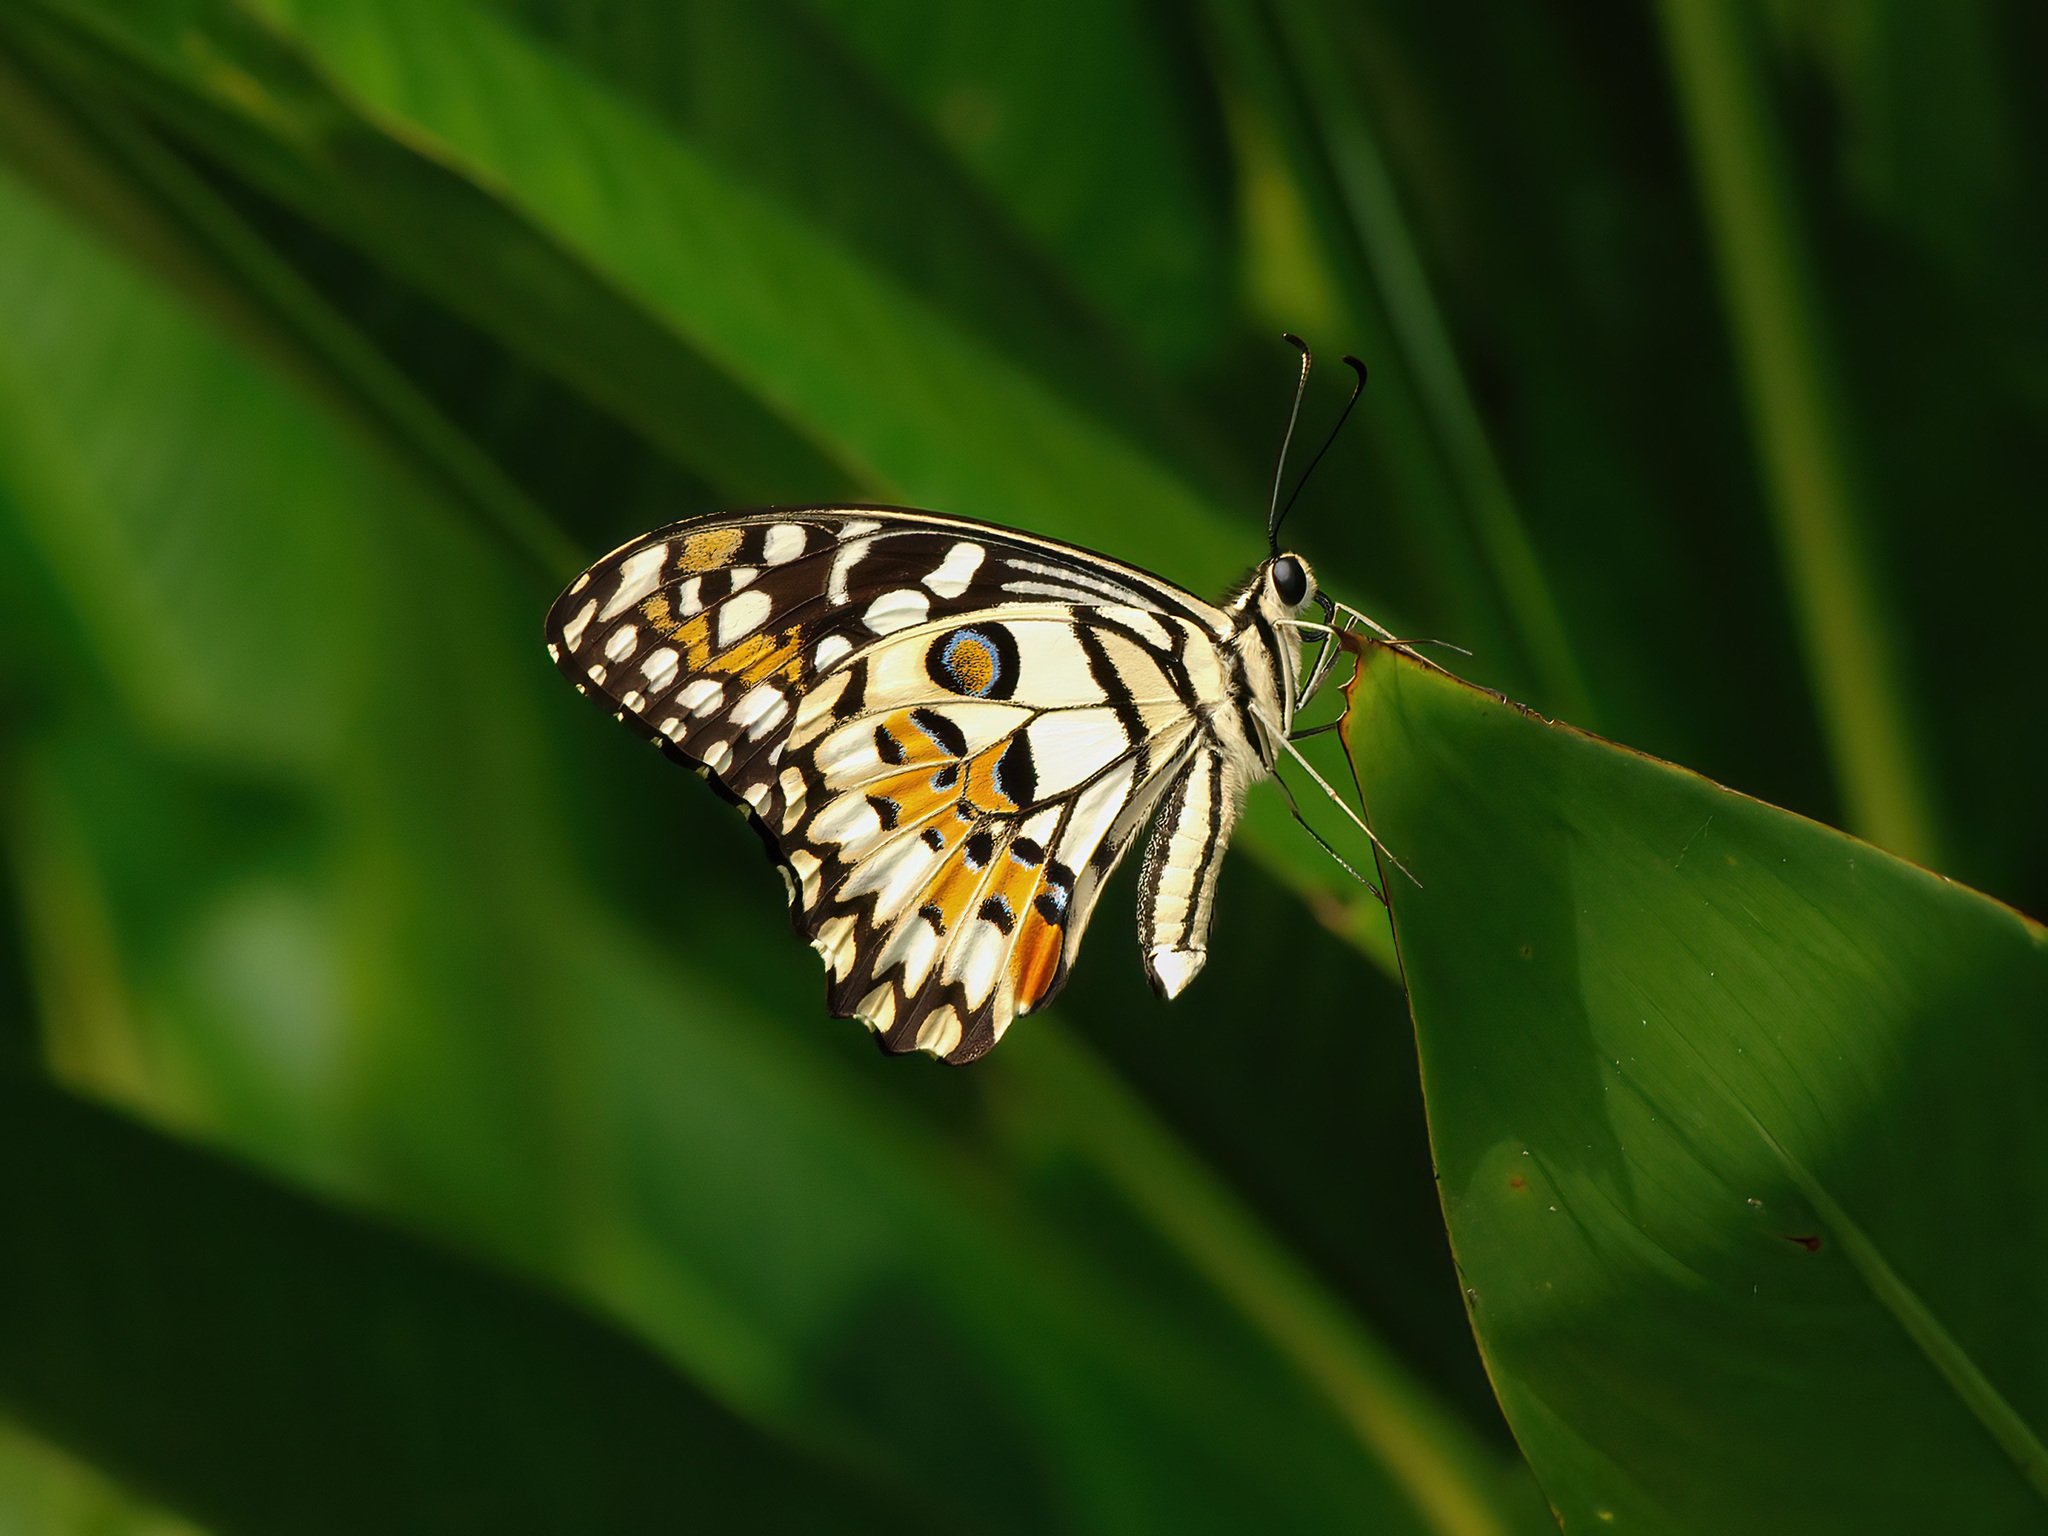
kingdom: Animalia
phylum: Arthropoda
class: Insecta
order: Lepidoptera
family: Papilionidae
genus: Papilio
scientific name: Papilio demoleus
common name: Lime butterfly
